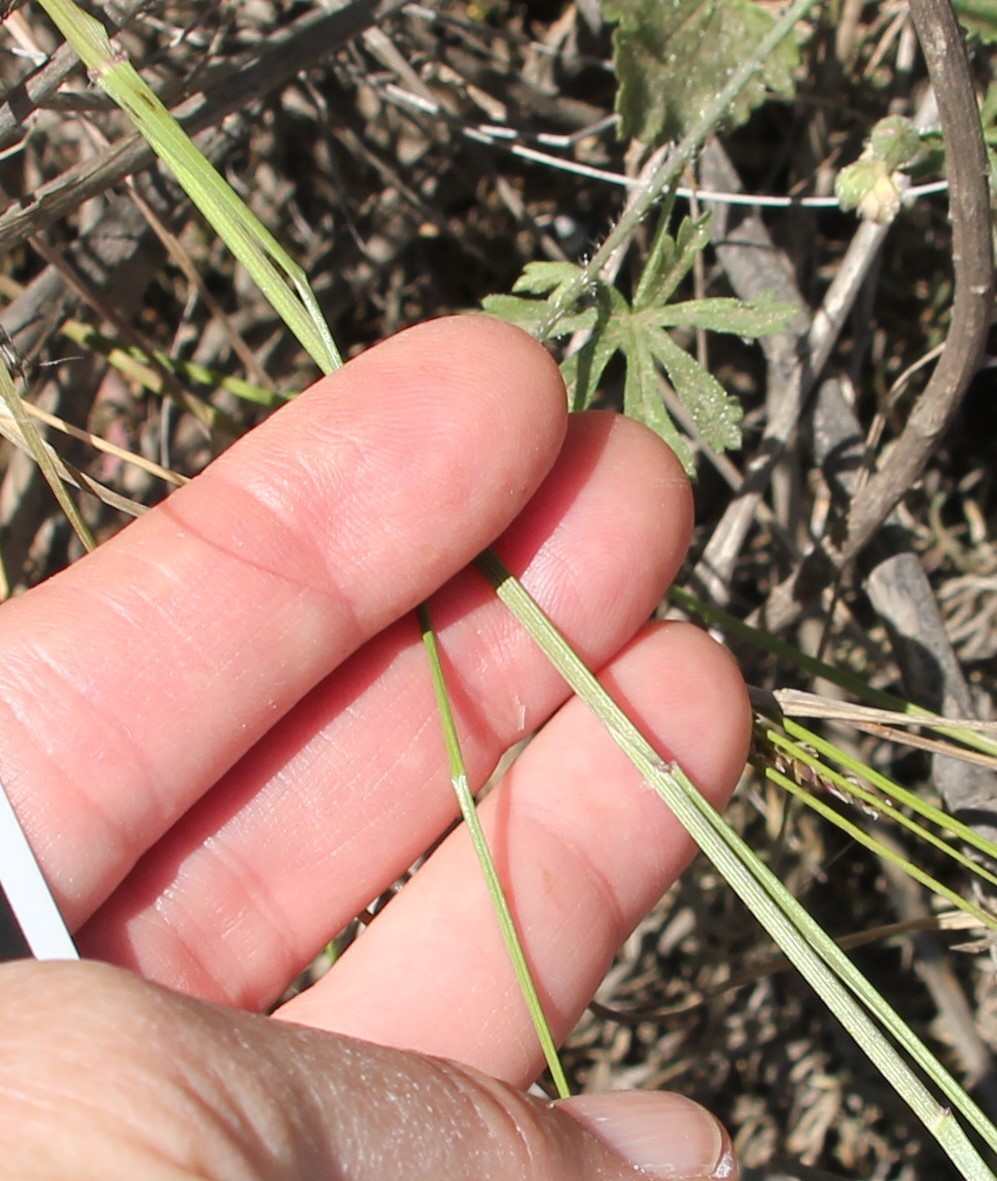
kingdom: Plantae
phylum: Tracheophyta
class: Liliopsida
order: Poales
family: Poaceae
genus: Melica
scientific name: Melica imperfecta
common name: California melic
